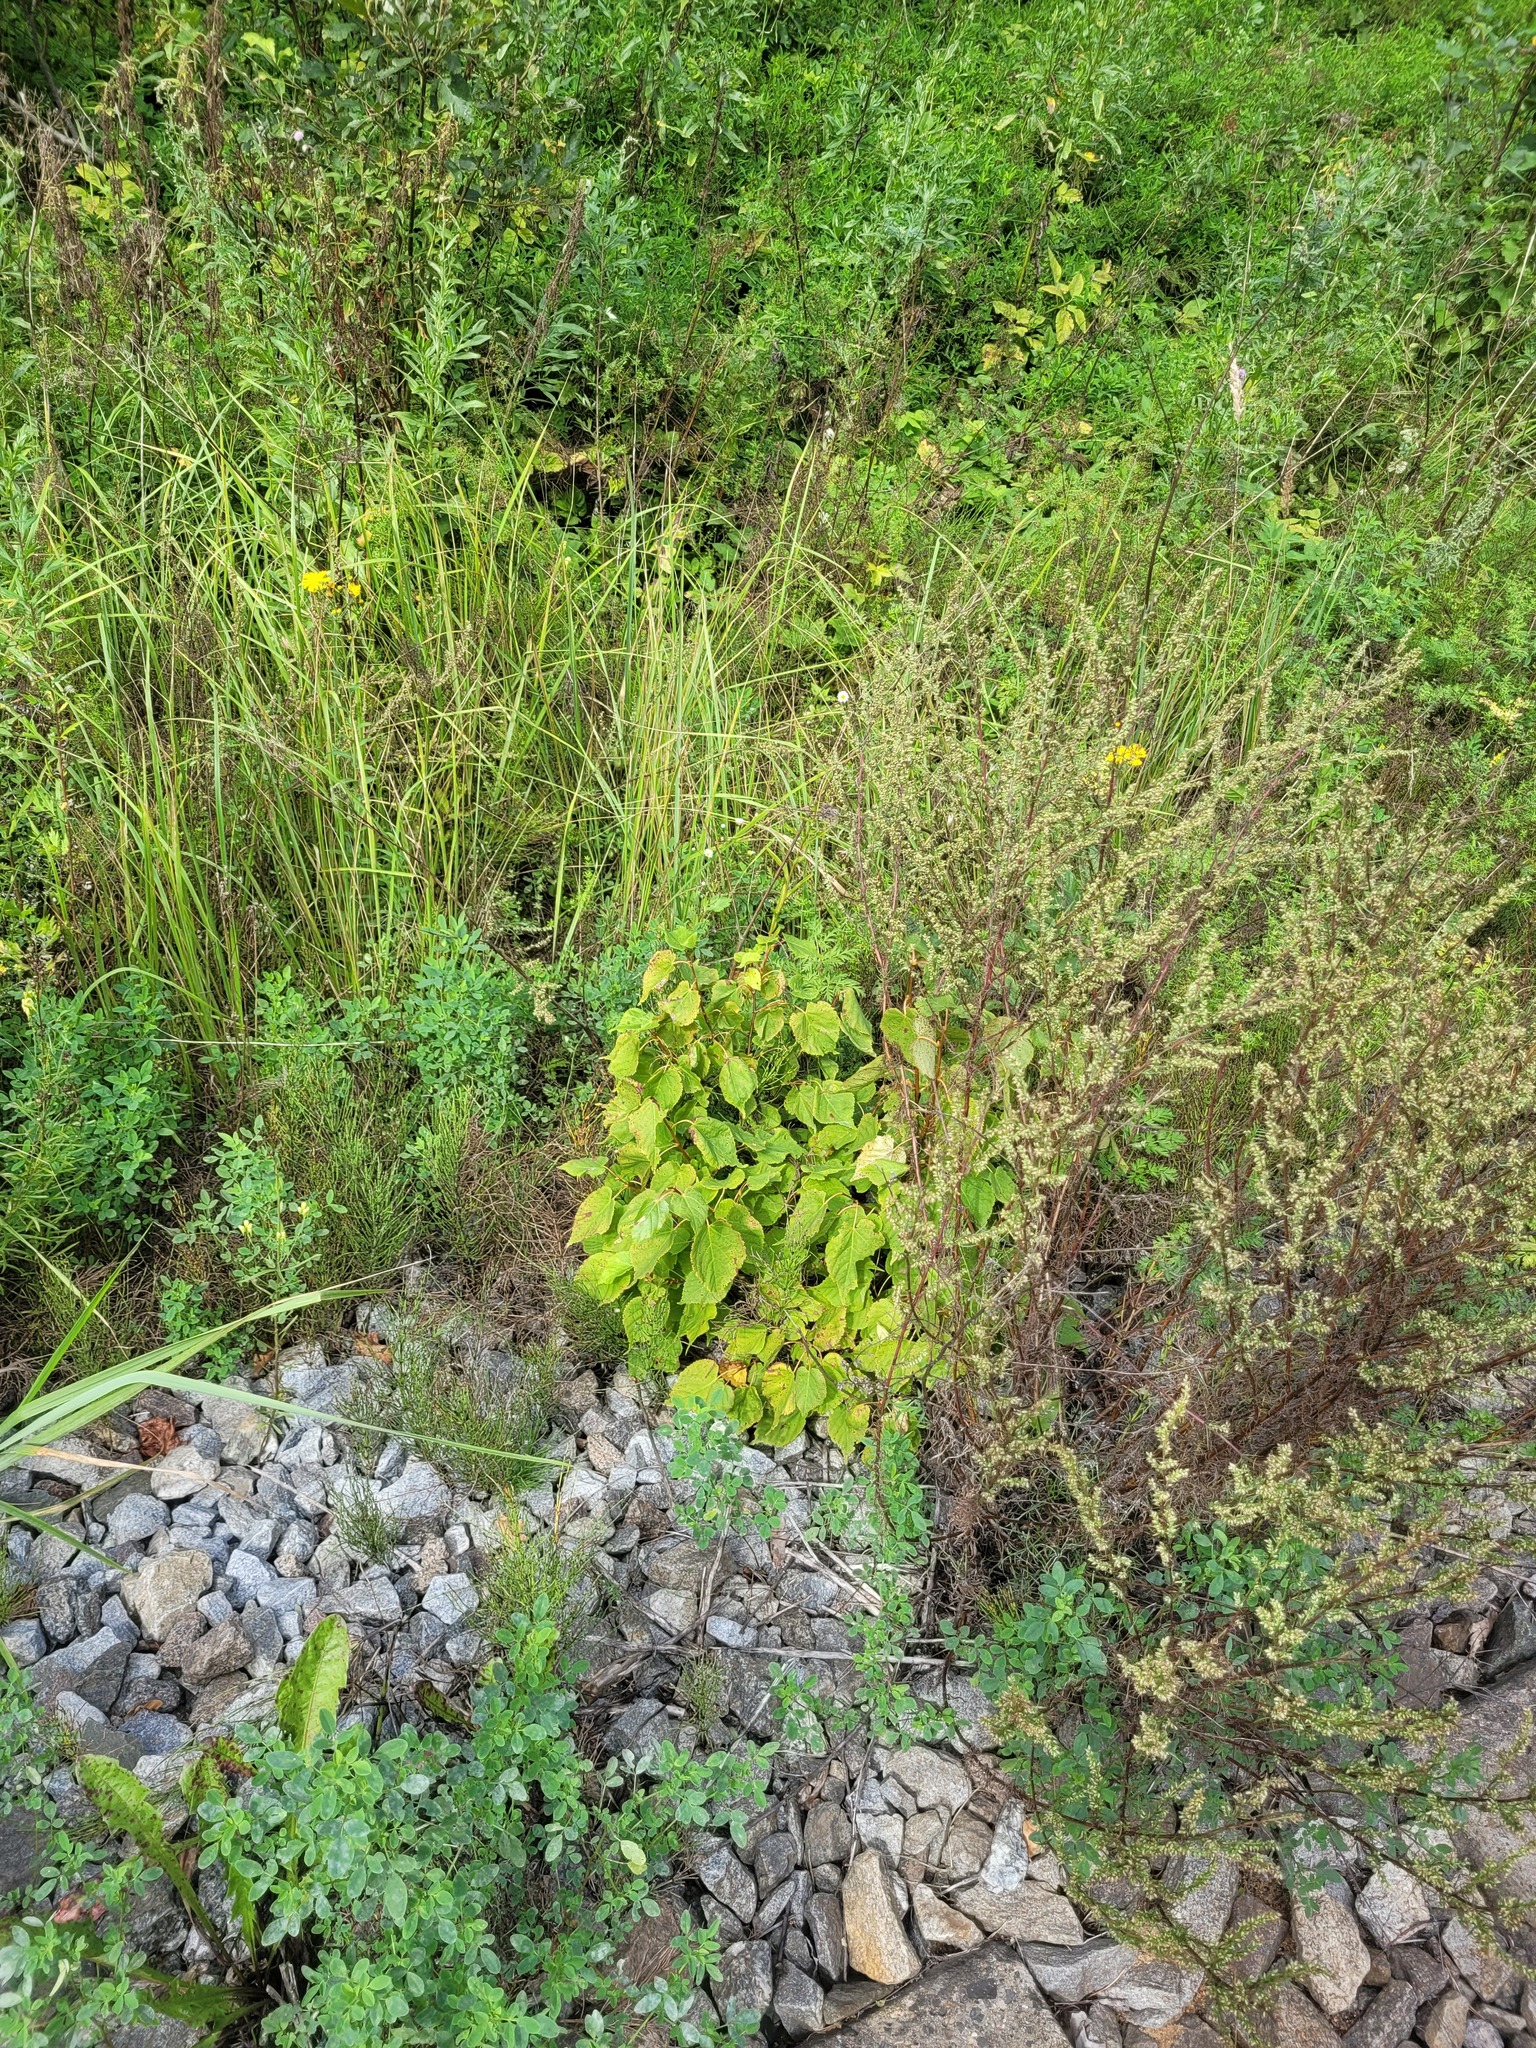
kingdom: Plantae
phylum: Tracheophyta
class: Magnoliopsida
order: Malvales
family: Malvaceae
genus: Tilia
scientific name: Tilia cordata
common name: Small-leaved lime
